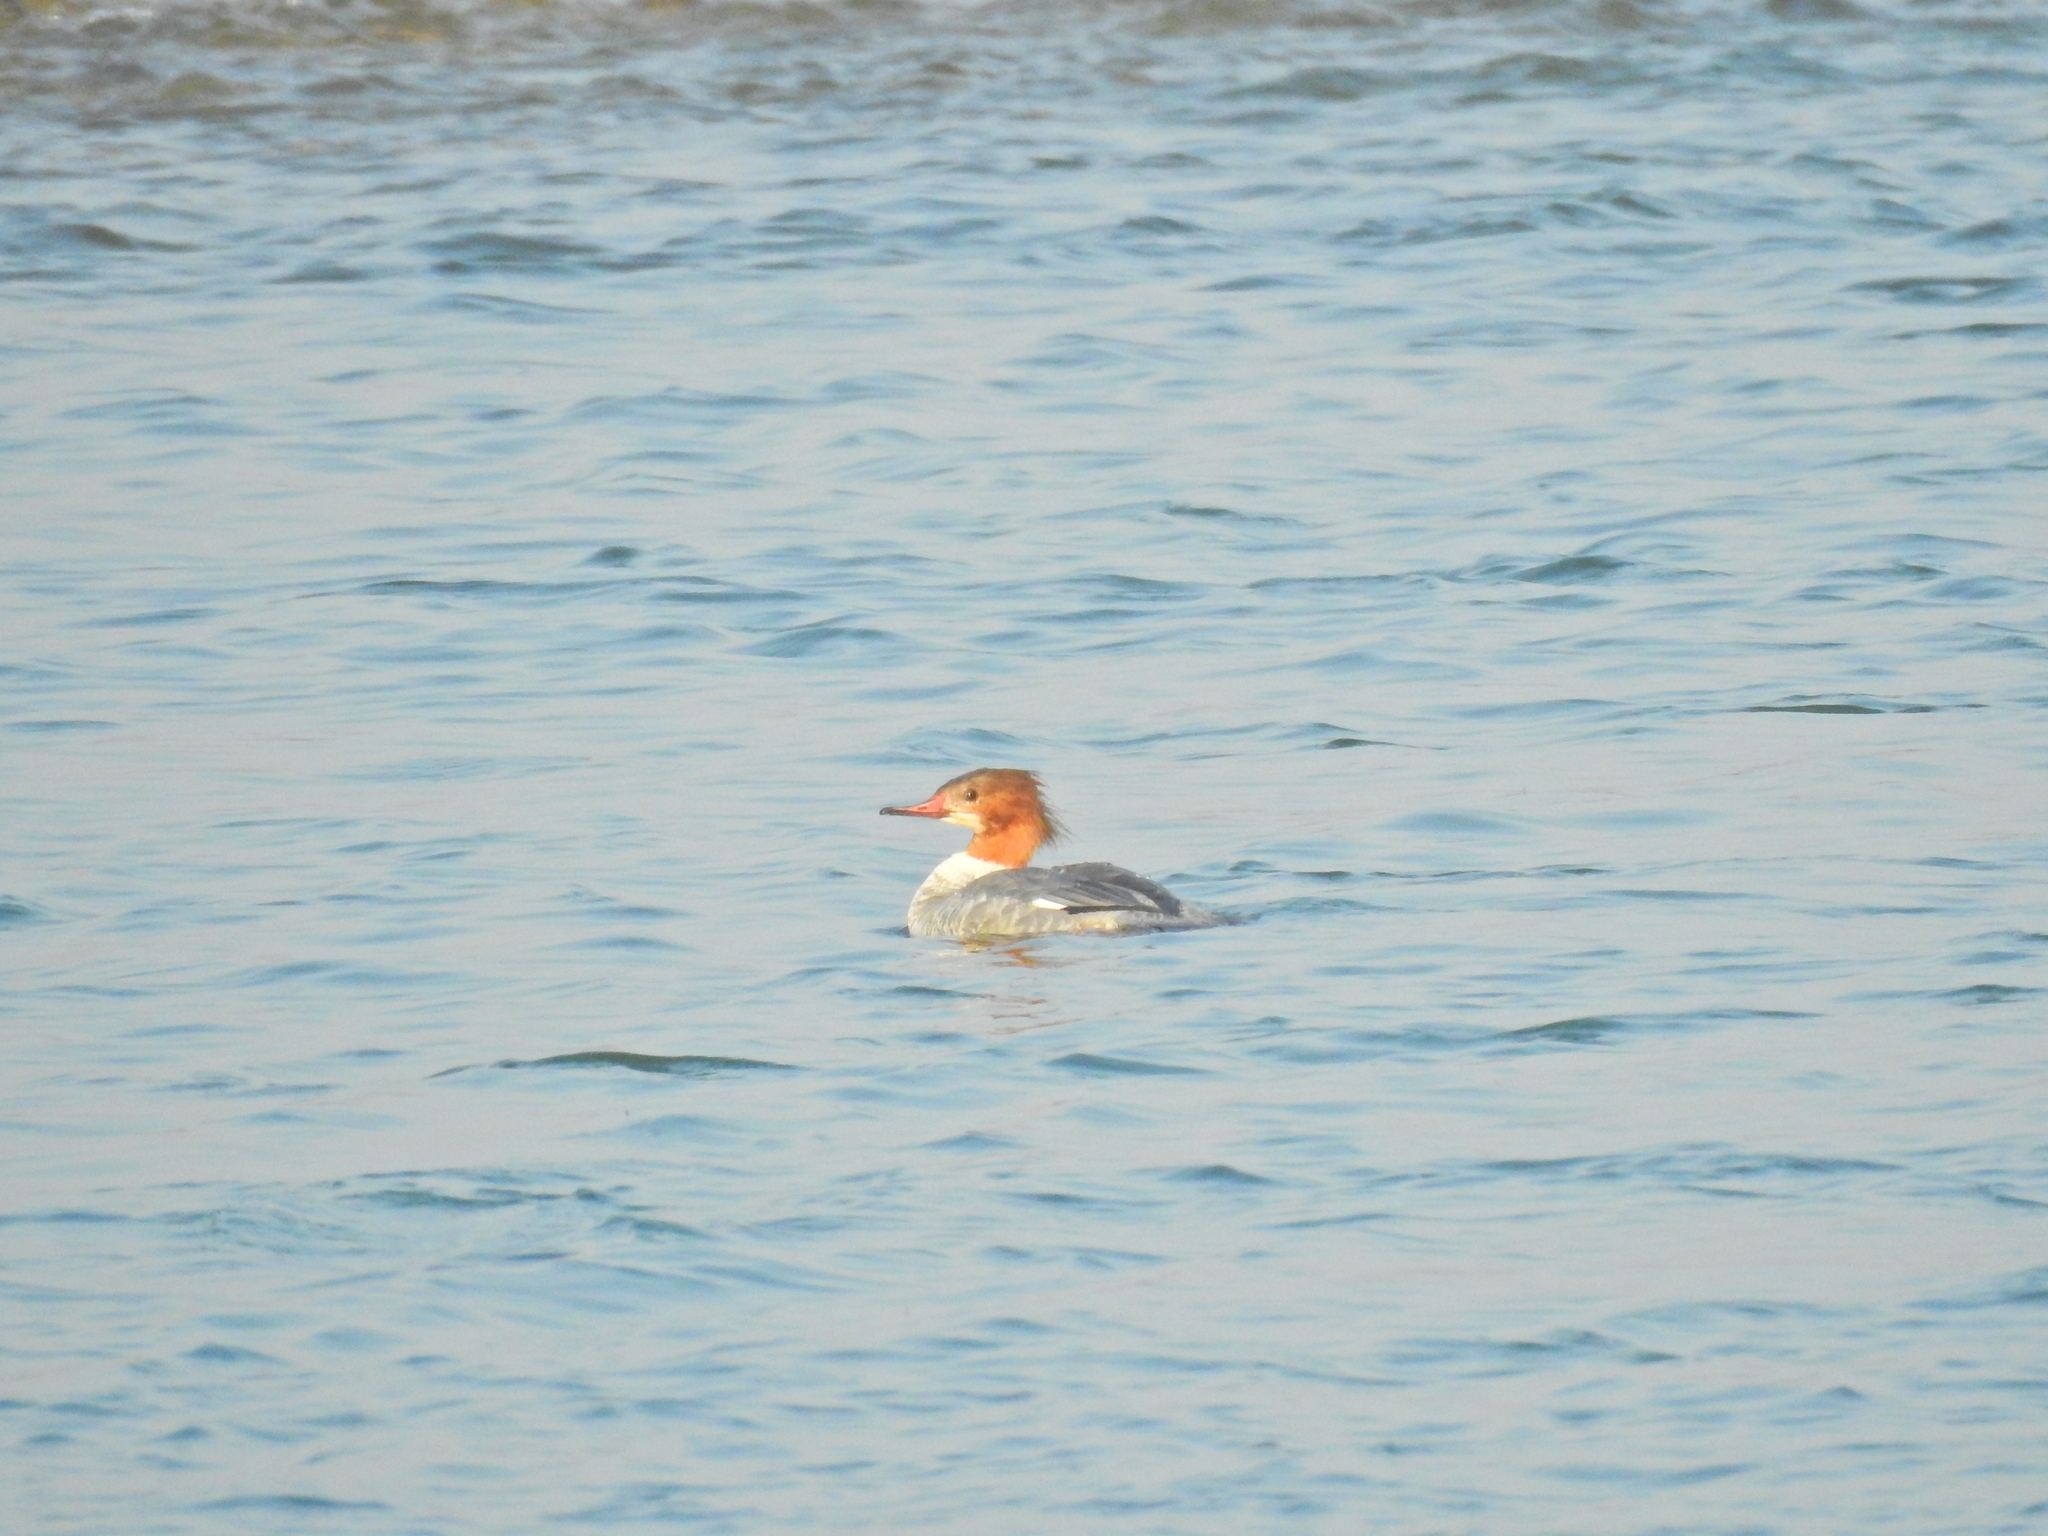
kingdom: Animalia
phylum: Chordata
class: Aves
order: Anseriformes
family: Anatidae
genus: Mergus
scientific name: Mergus merganser
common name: Common merganser
